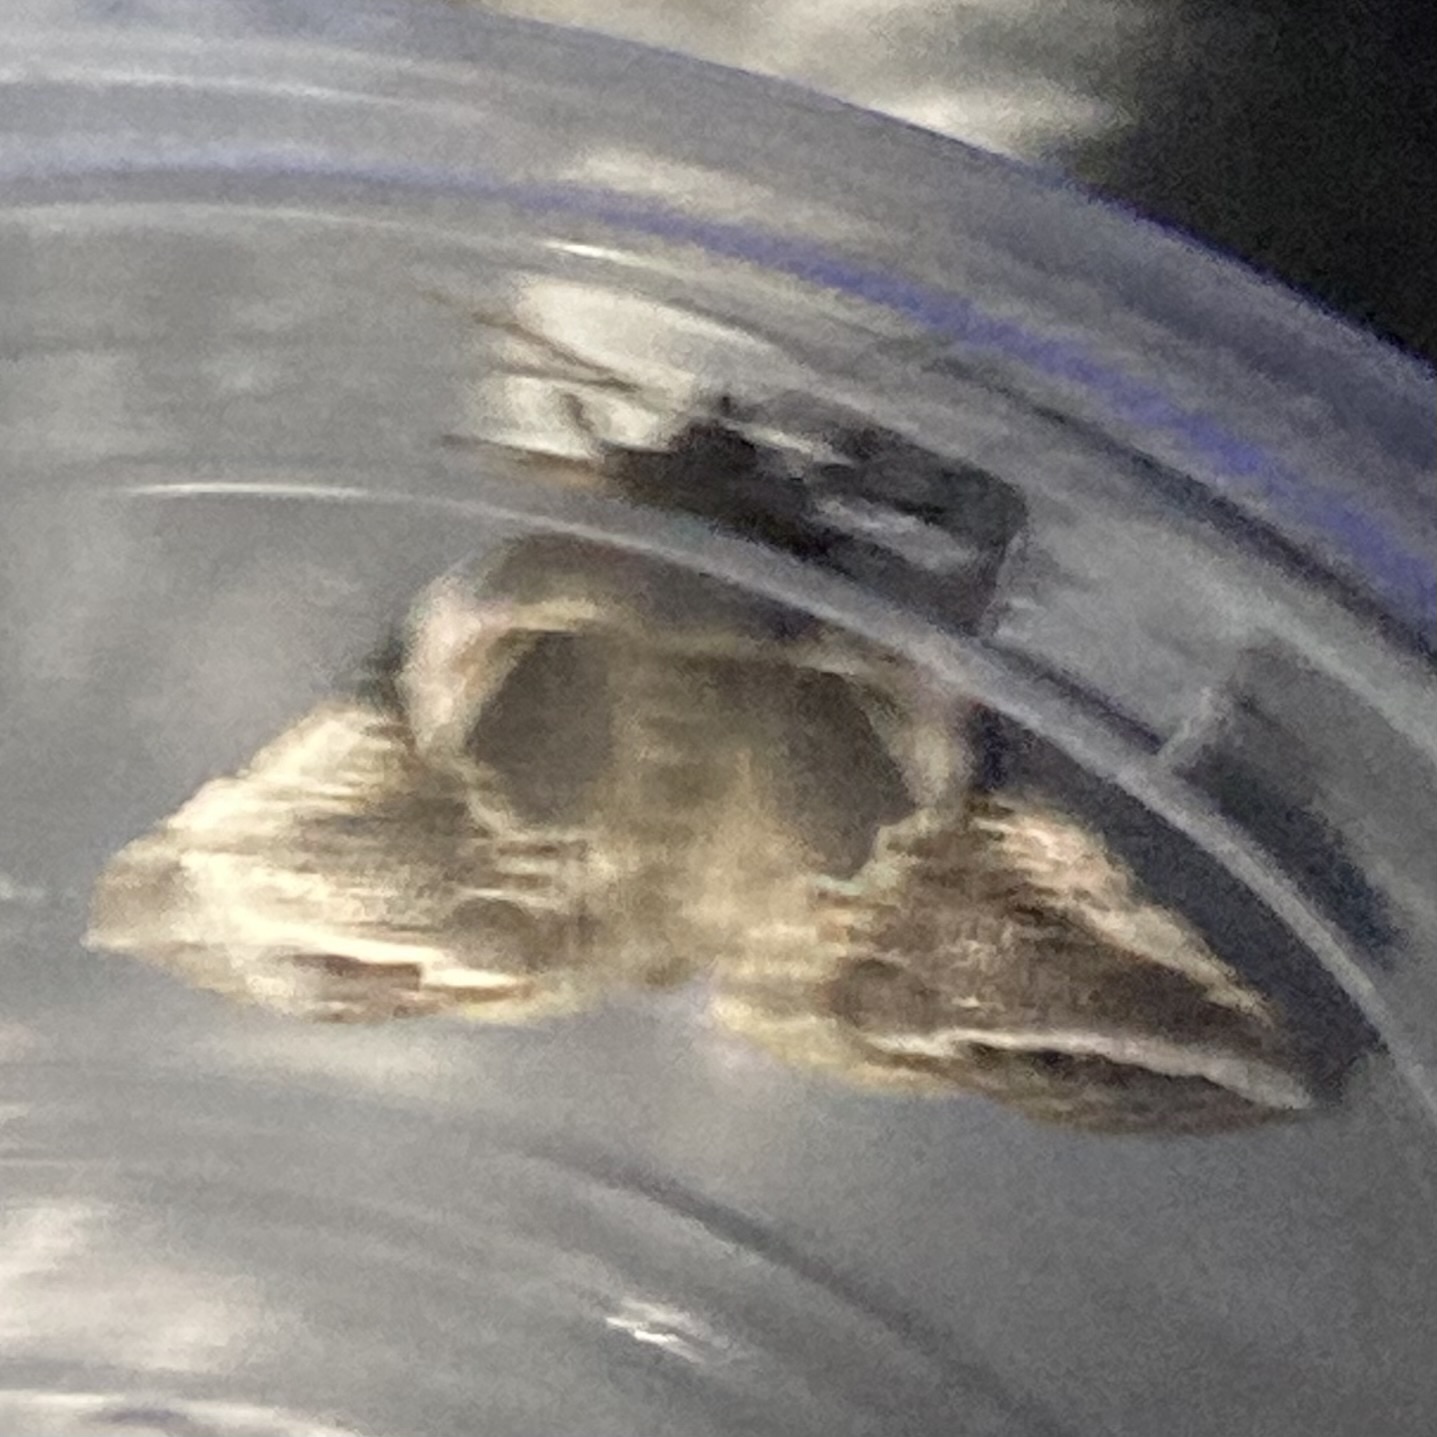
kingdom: Animalia
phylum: Arthropoda
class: Insecta
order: Lepidoptera
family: Drepanidae
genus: Habrosyne
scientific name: Habrosyne scripta
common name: Lettered habrosyne moth
